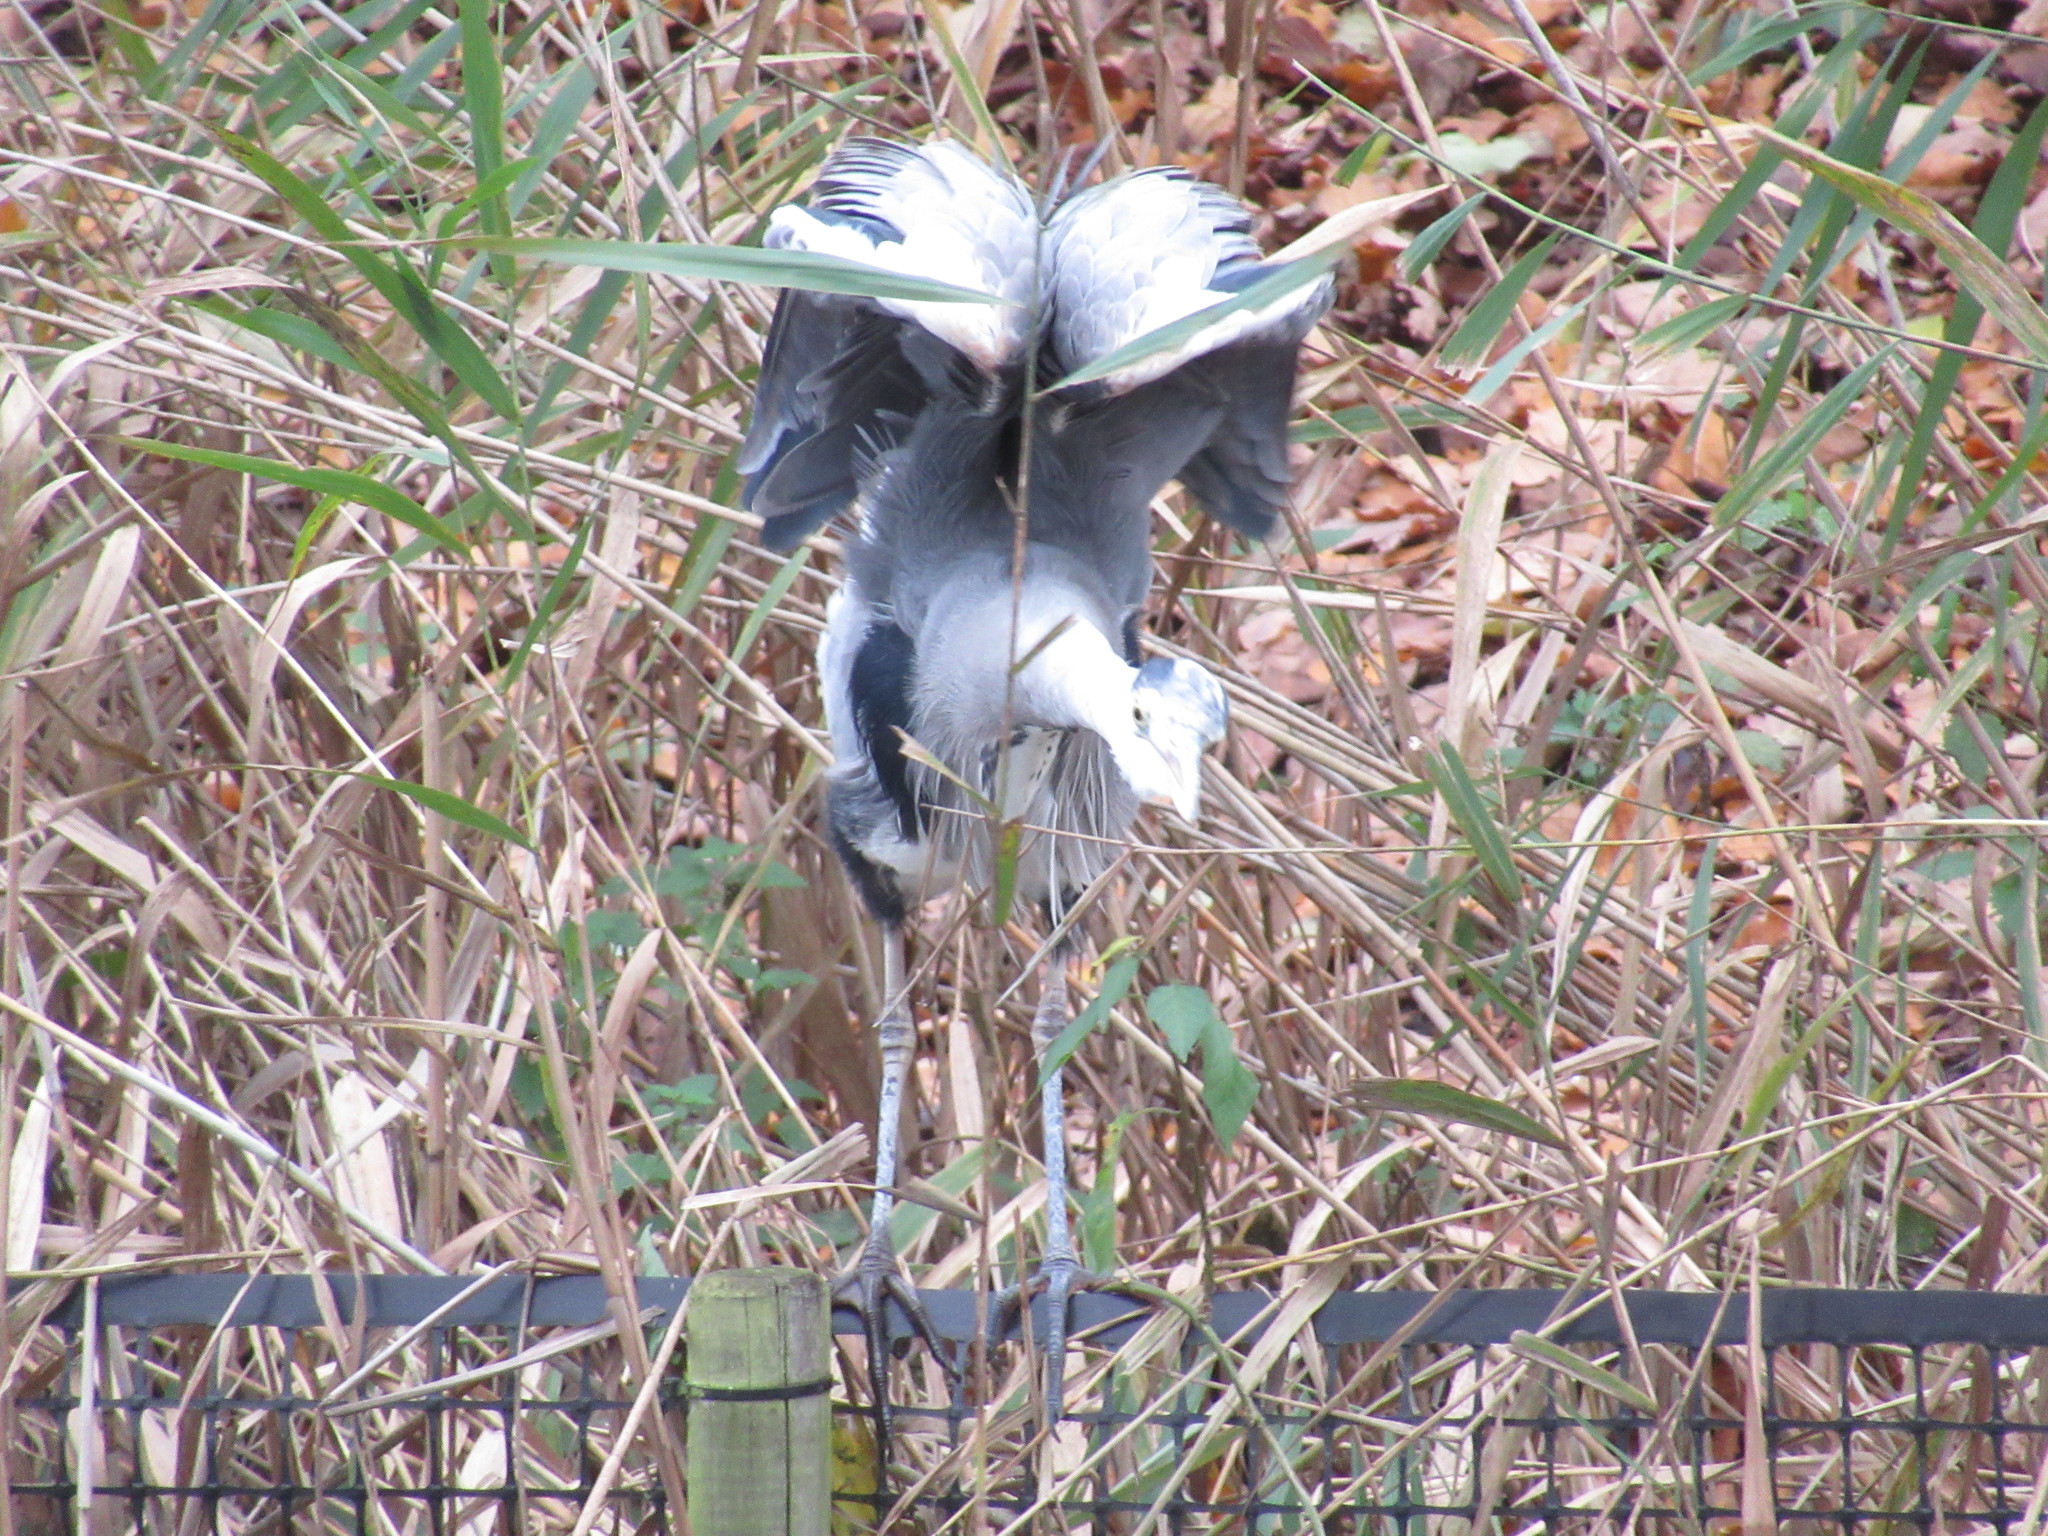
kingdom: Animalia
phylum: Chordata
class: Aves
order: Pelecaniformes
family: Ardeidae
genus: Ardea
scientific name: Ardea cinerea
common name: Grey heron
